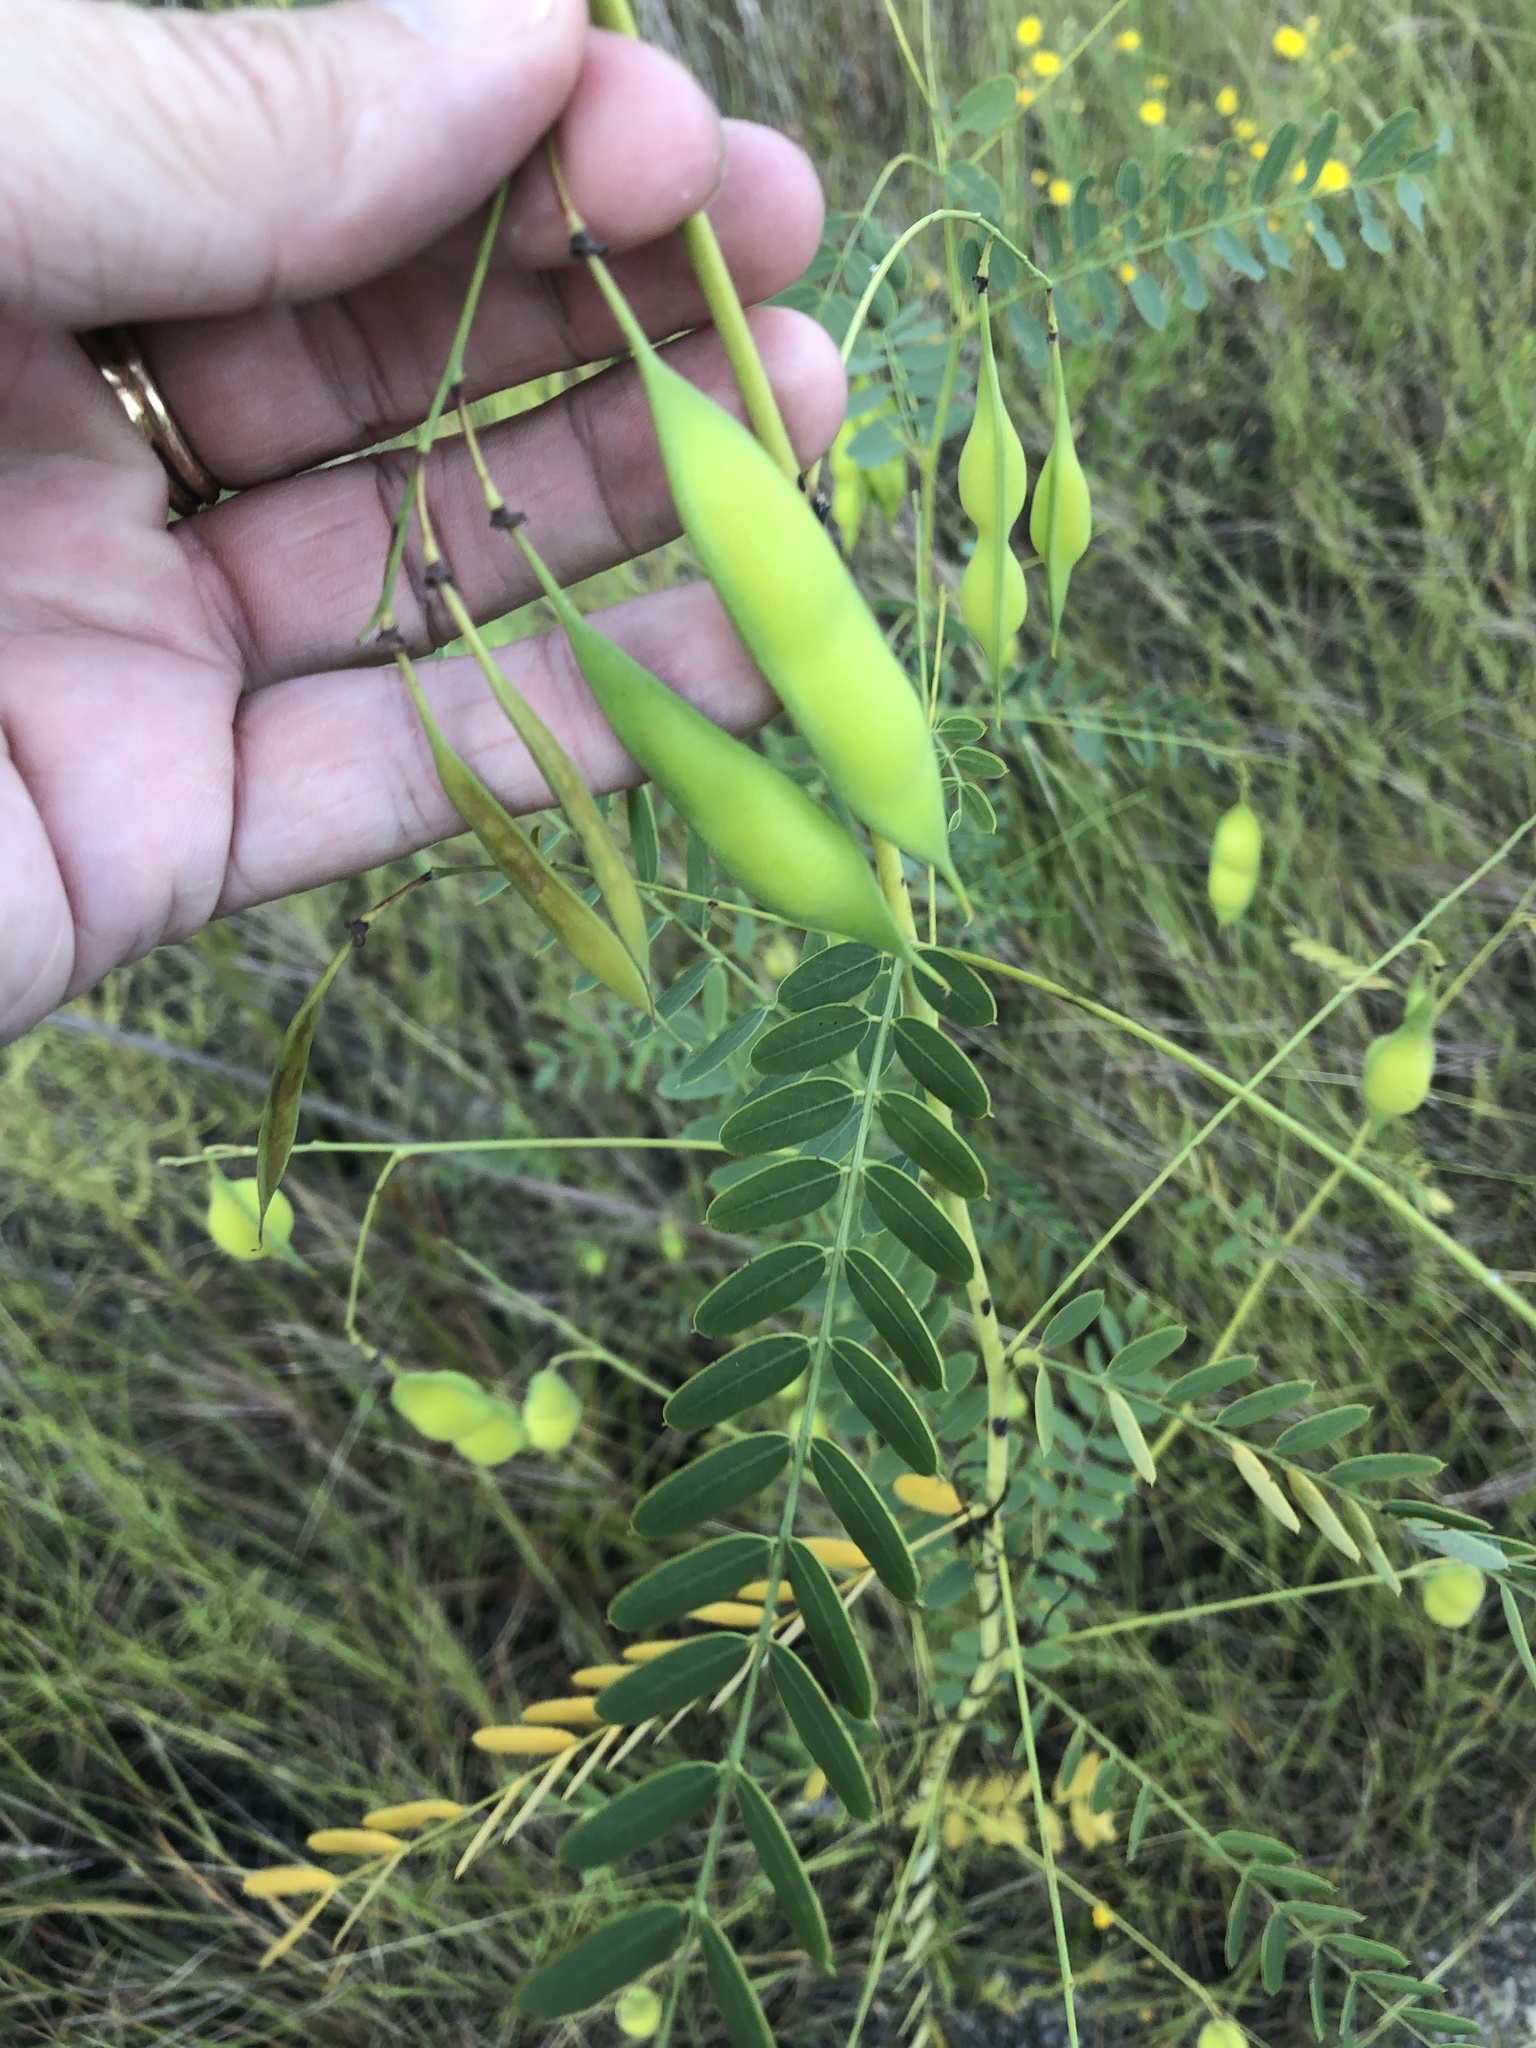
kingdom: Plantae
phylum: Tracheophyta
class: Magnoliopsida
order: Fabales
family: Fabaceae
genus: Sesbania
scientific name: Sesbania vesicaria
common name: Bagpod
